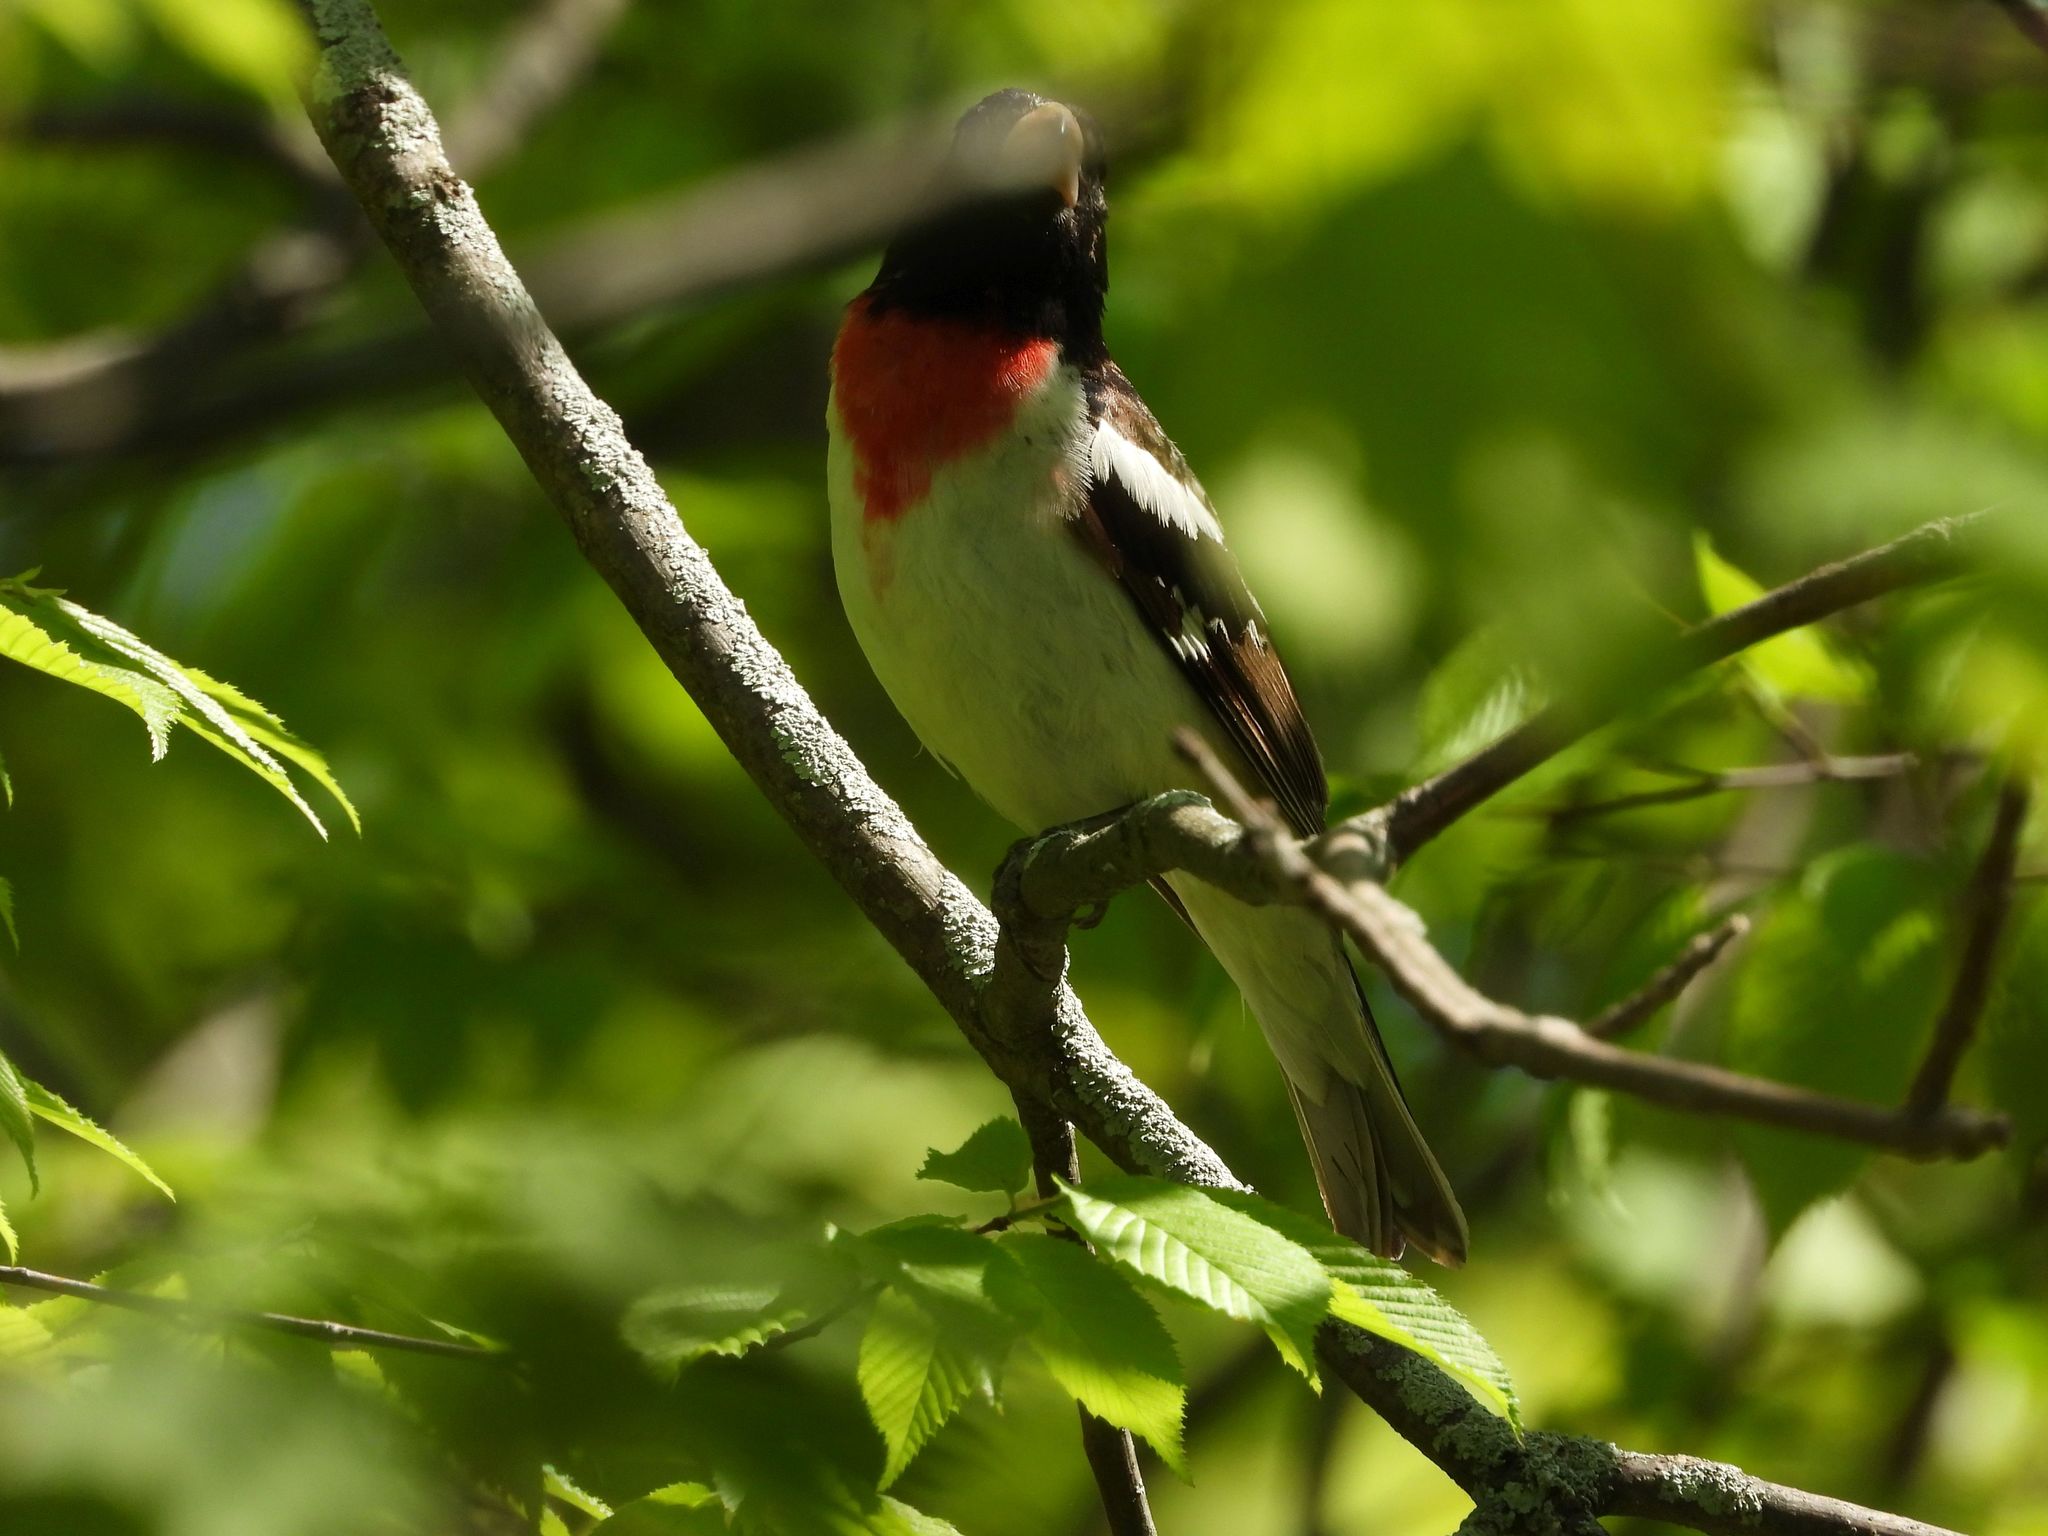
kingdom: Animalia
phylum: Chordata
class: Aves
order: Passeriformes
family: Cardinalidae
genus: Pheucticus
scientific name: Pheucticus ludovicianus
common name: Rose-breasted grosbeak
